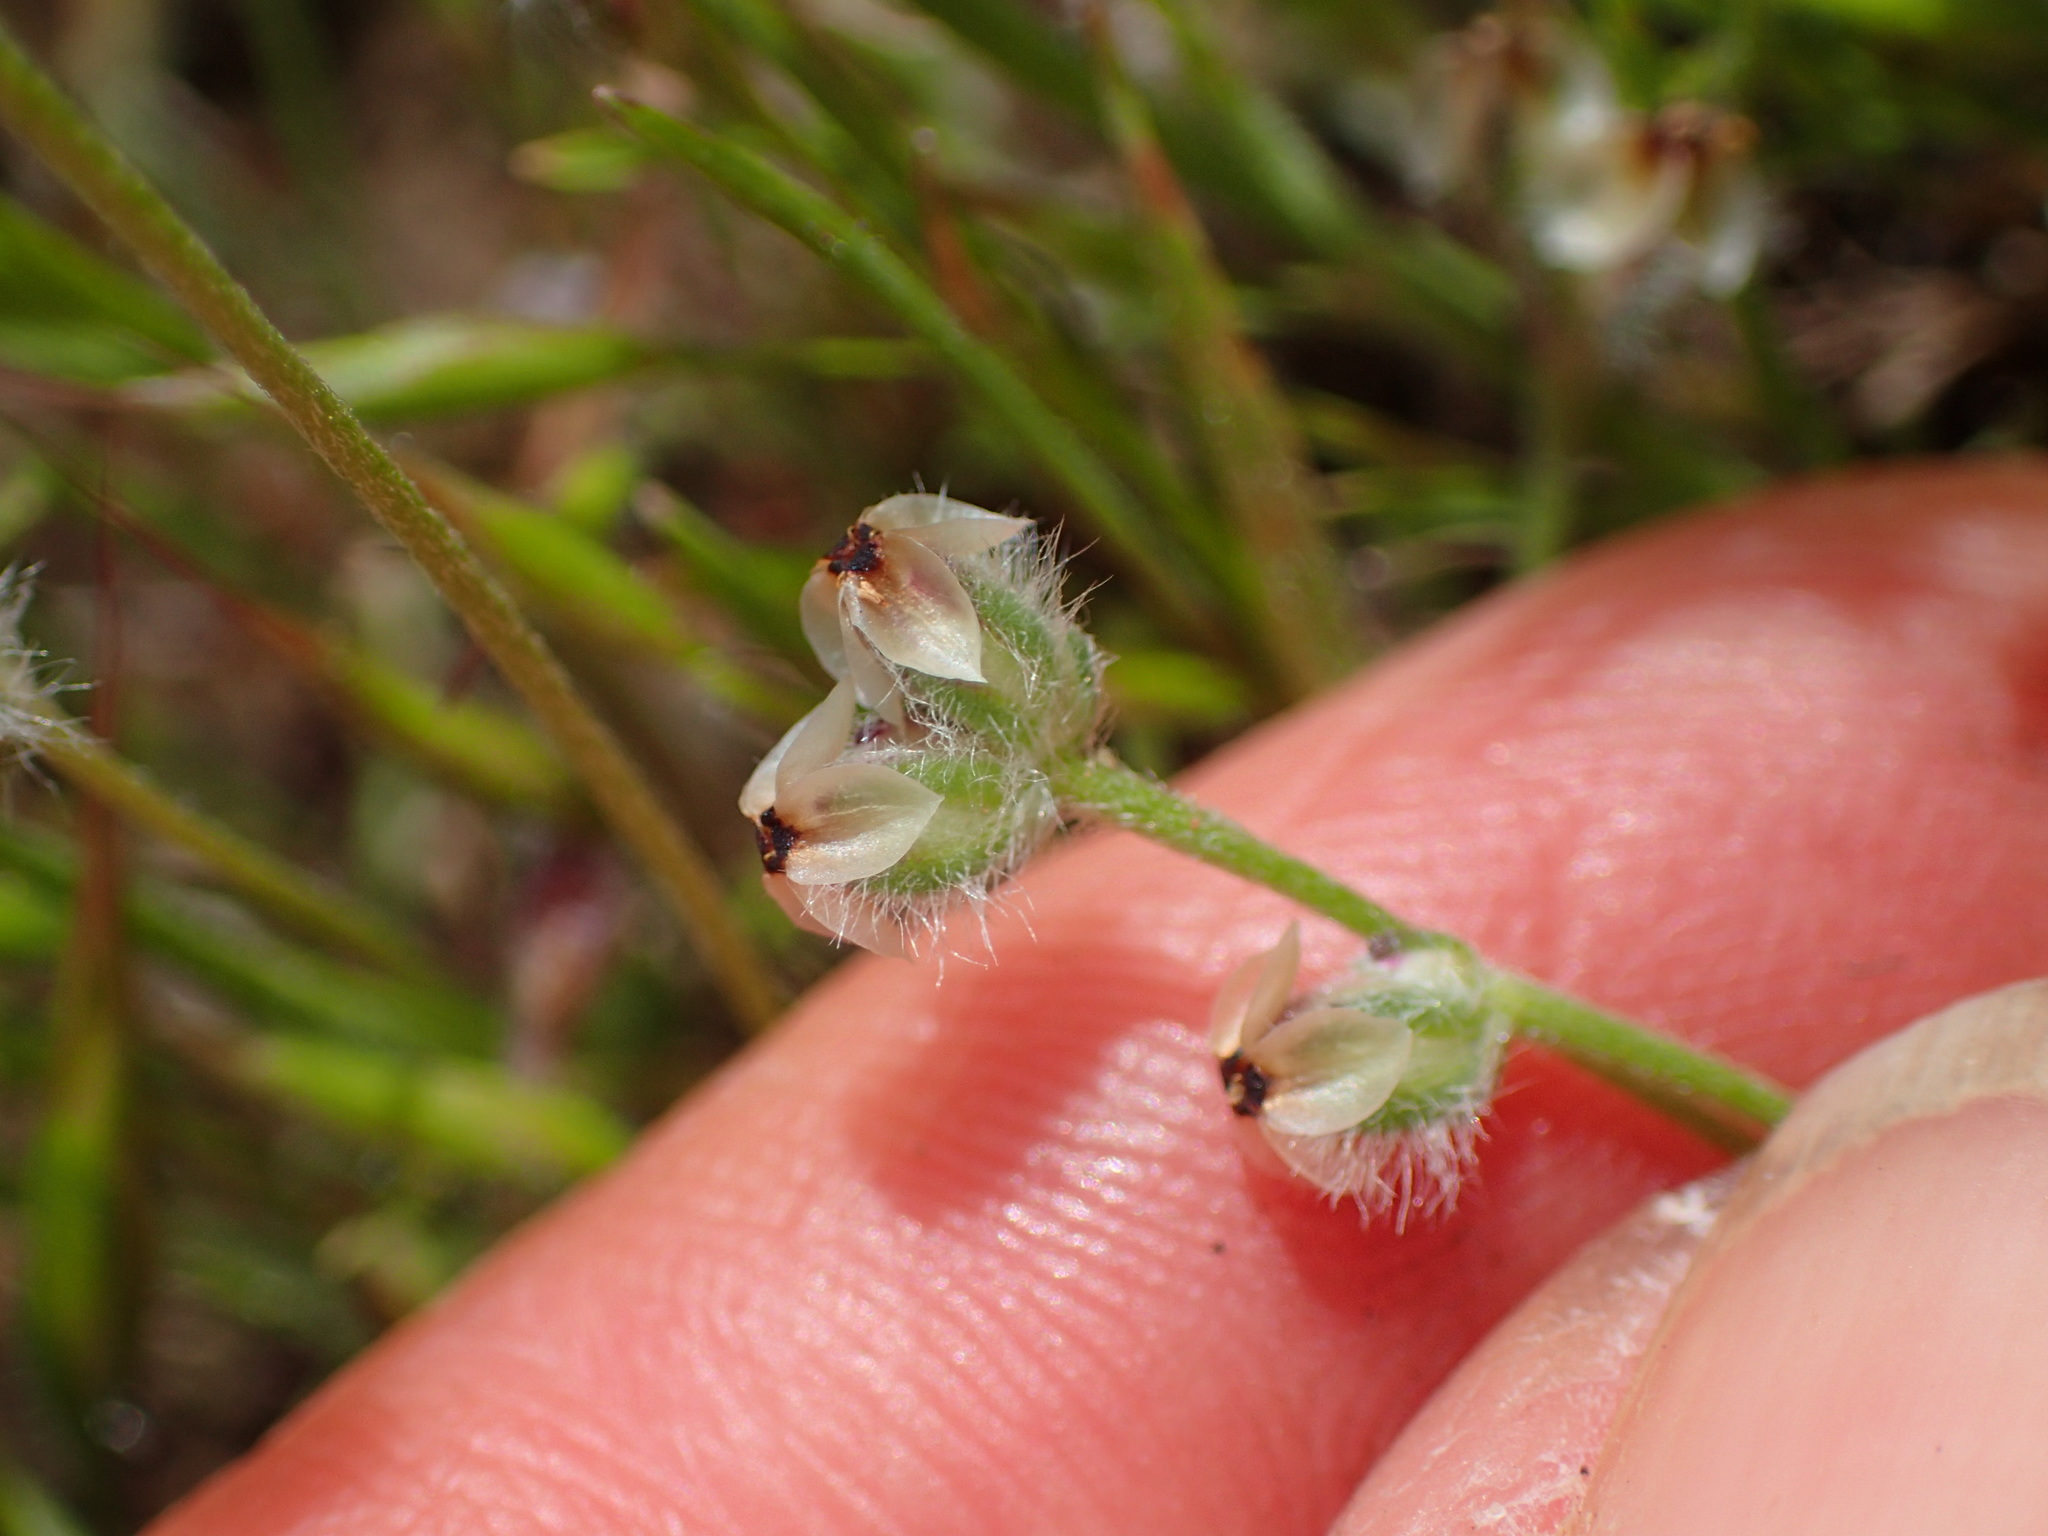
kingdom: Plantae
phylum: Tracheophyta
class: Magnoliopsida
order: Lamiales
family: Plantaginaceae
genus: Plantago
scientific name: Plantago erecta
